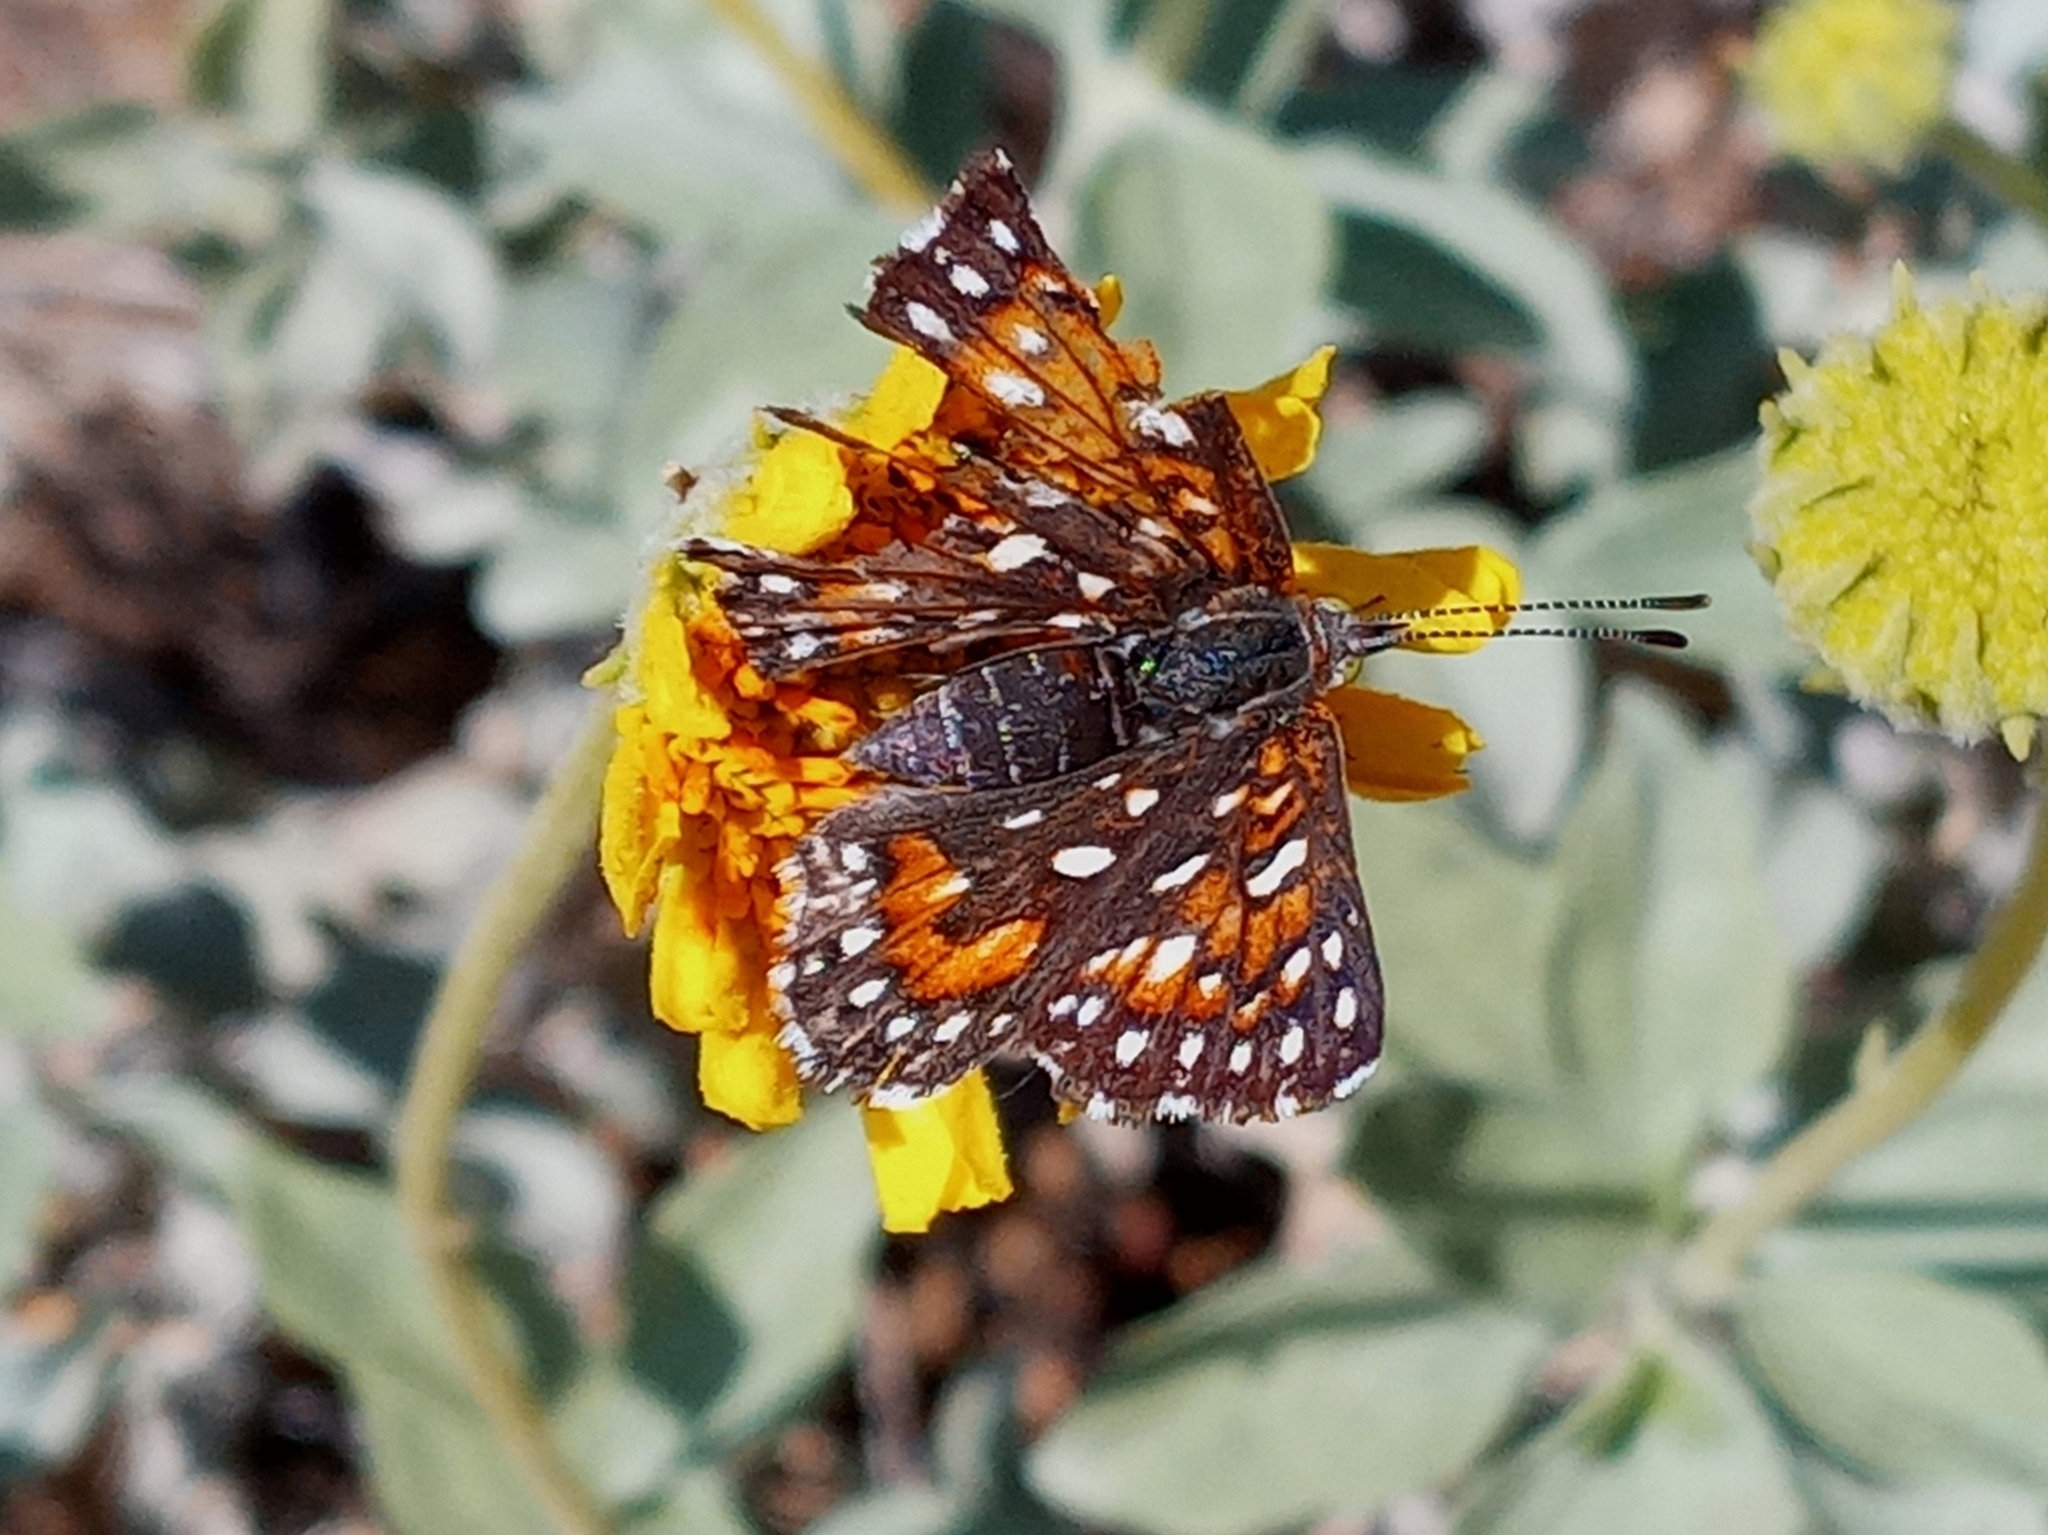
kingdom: Animalia
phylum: Arthropoda
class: Insecta
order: Lepidoptera
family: Riodinidae
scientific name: Riodinidae
